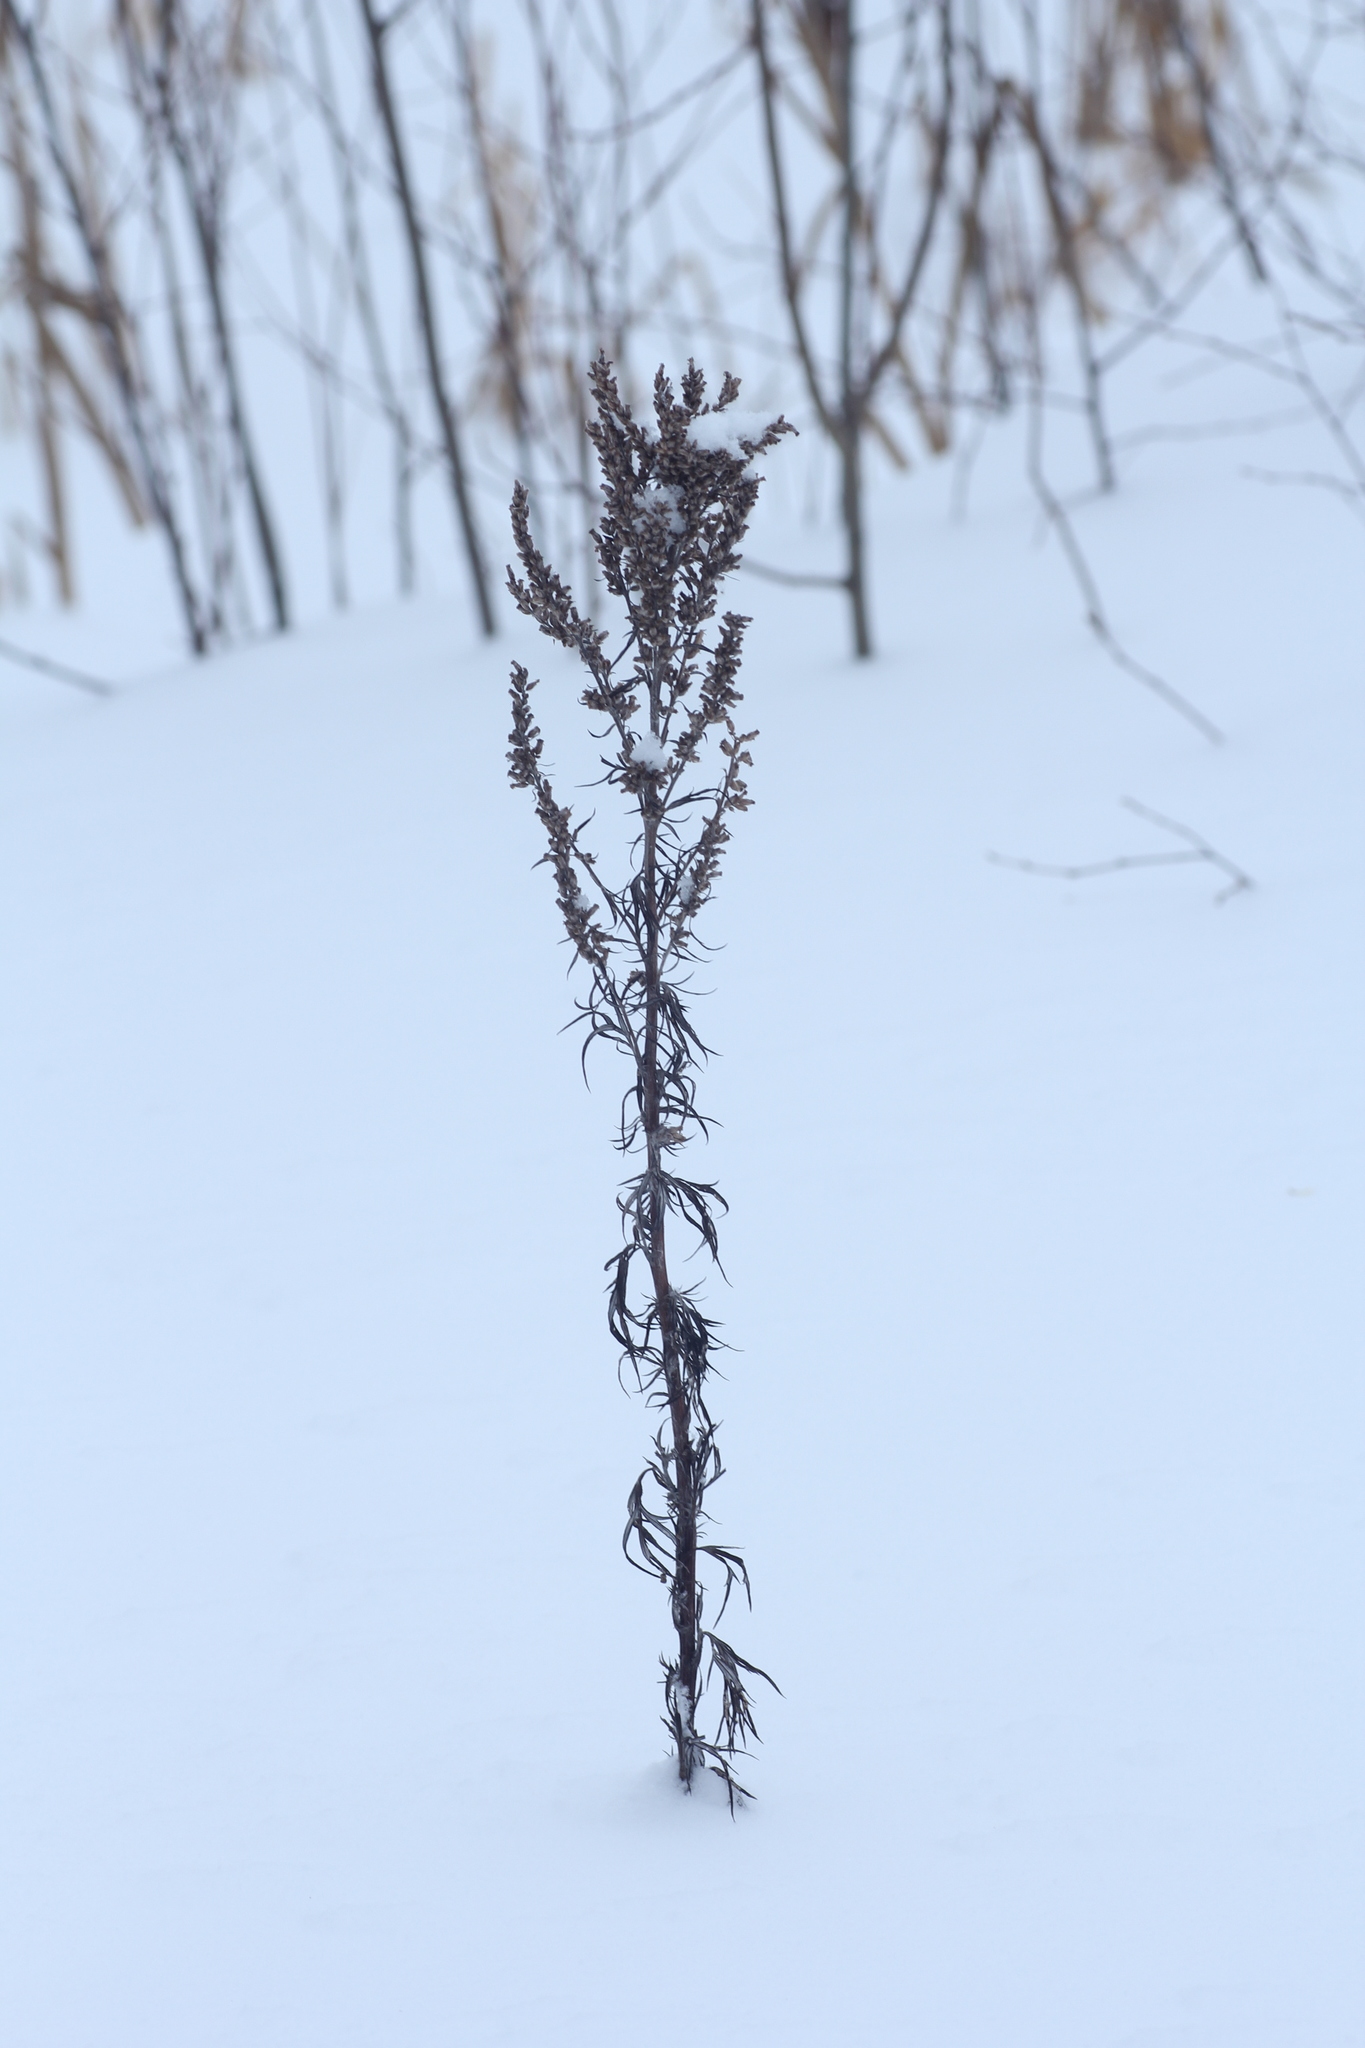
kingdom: Plantae
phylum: Tracheophyta
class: Magnoliopsida
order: Asterales
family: Asteraceae
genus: Artemisia
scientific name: Artemisia vulgaris
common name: Mugwort
